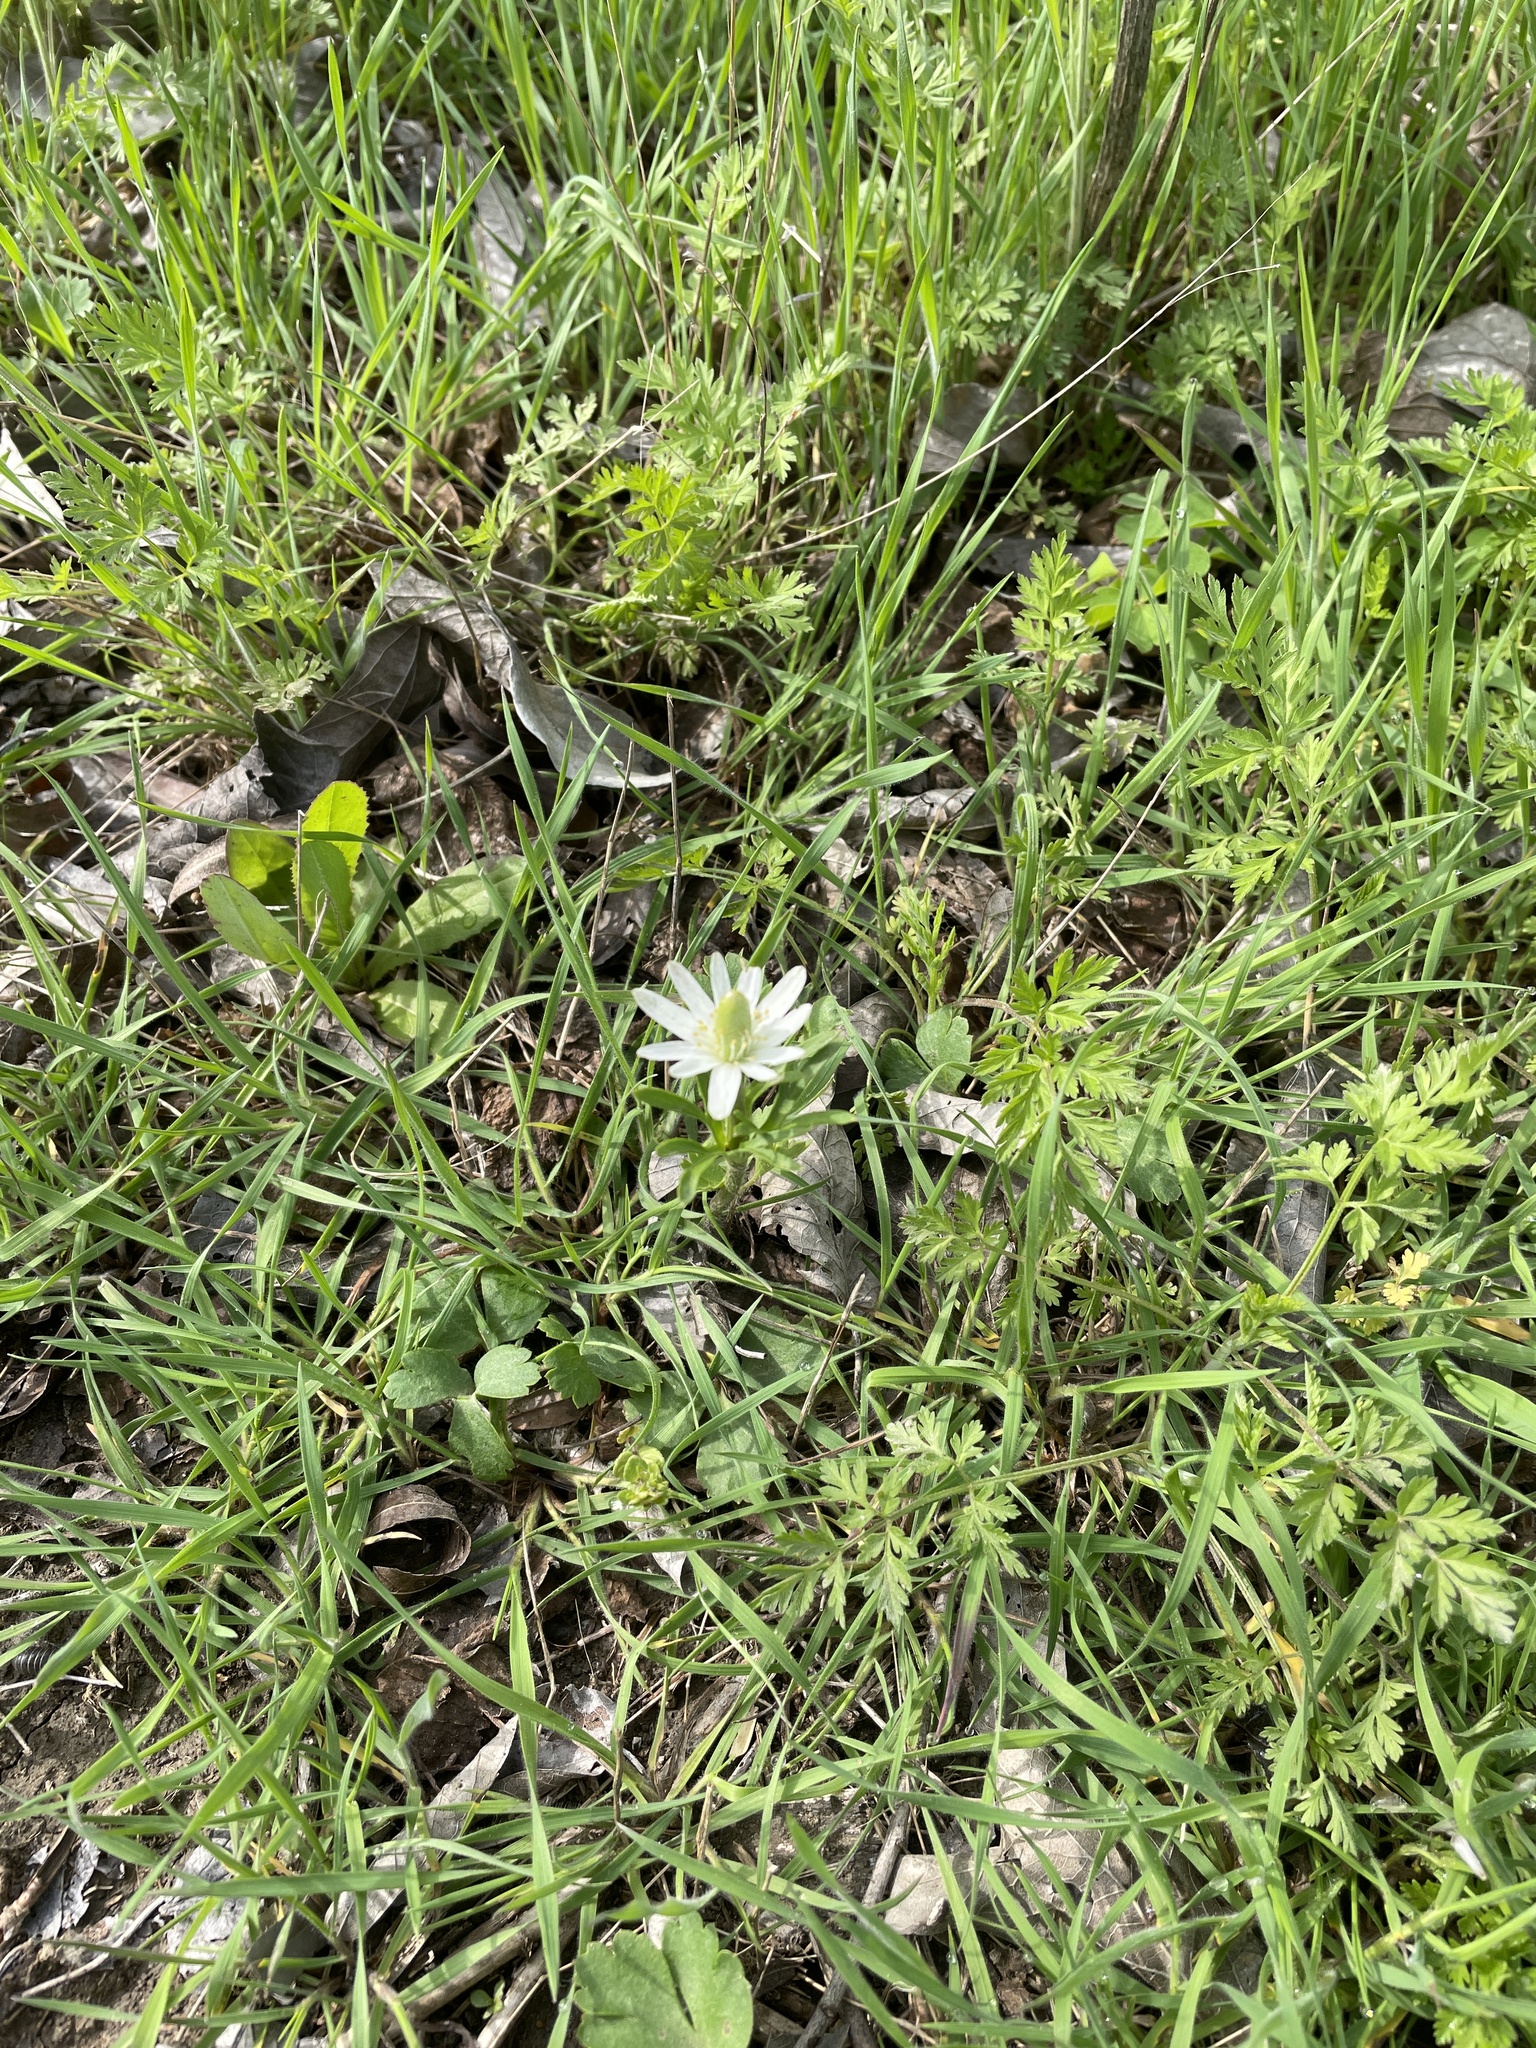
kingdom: Plantae
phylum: Tracheophyta
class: Magnoliopsida
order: Ranunculales
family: Ranunculaceae
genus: Anemone
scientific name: Anemone berlandieri
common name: Ten-petal anemone
